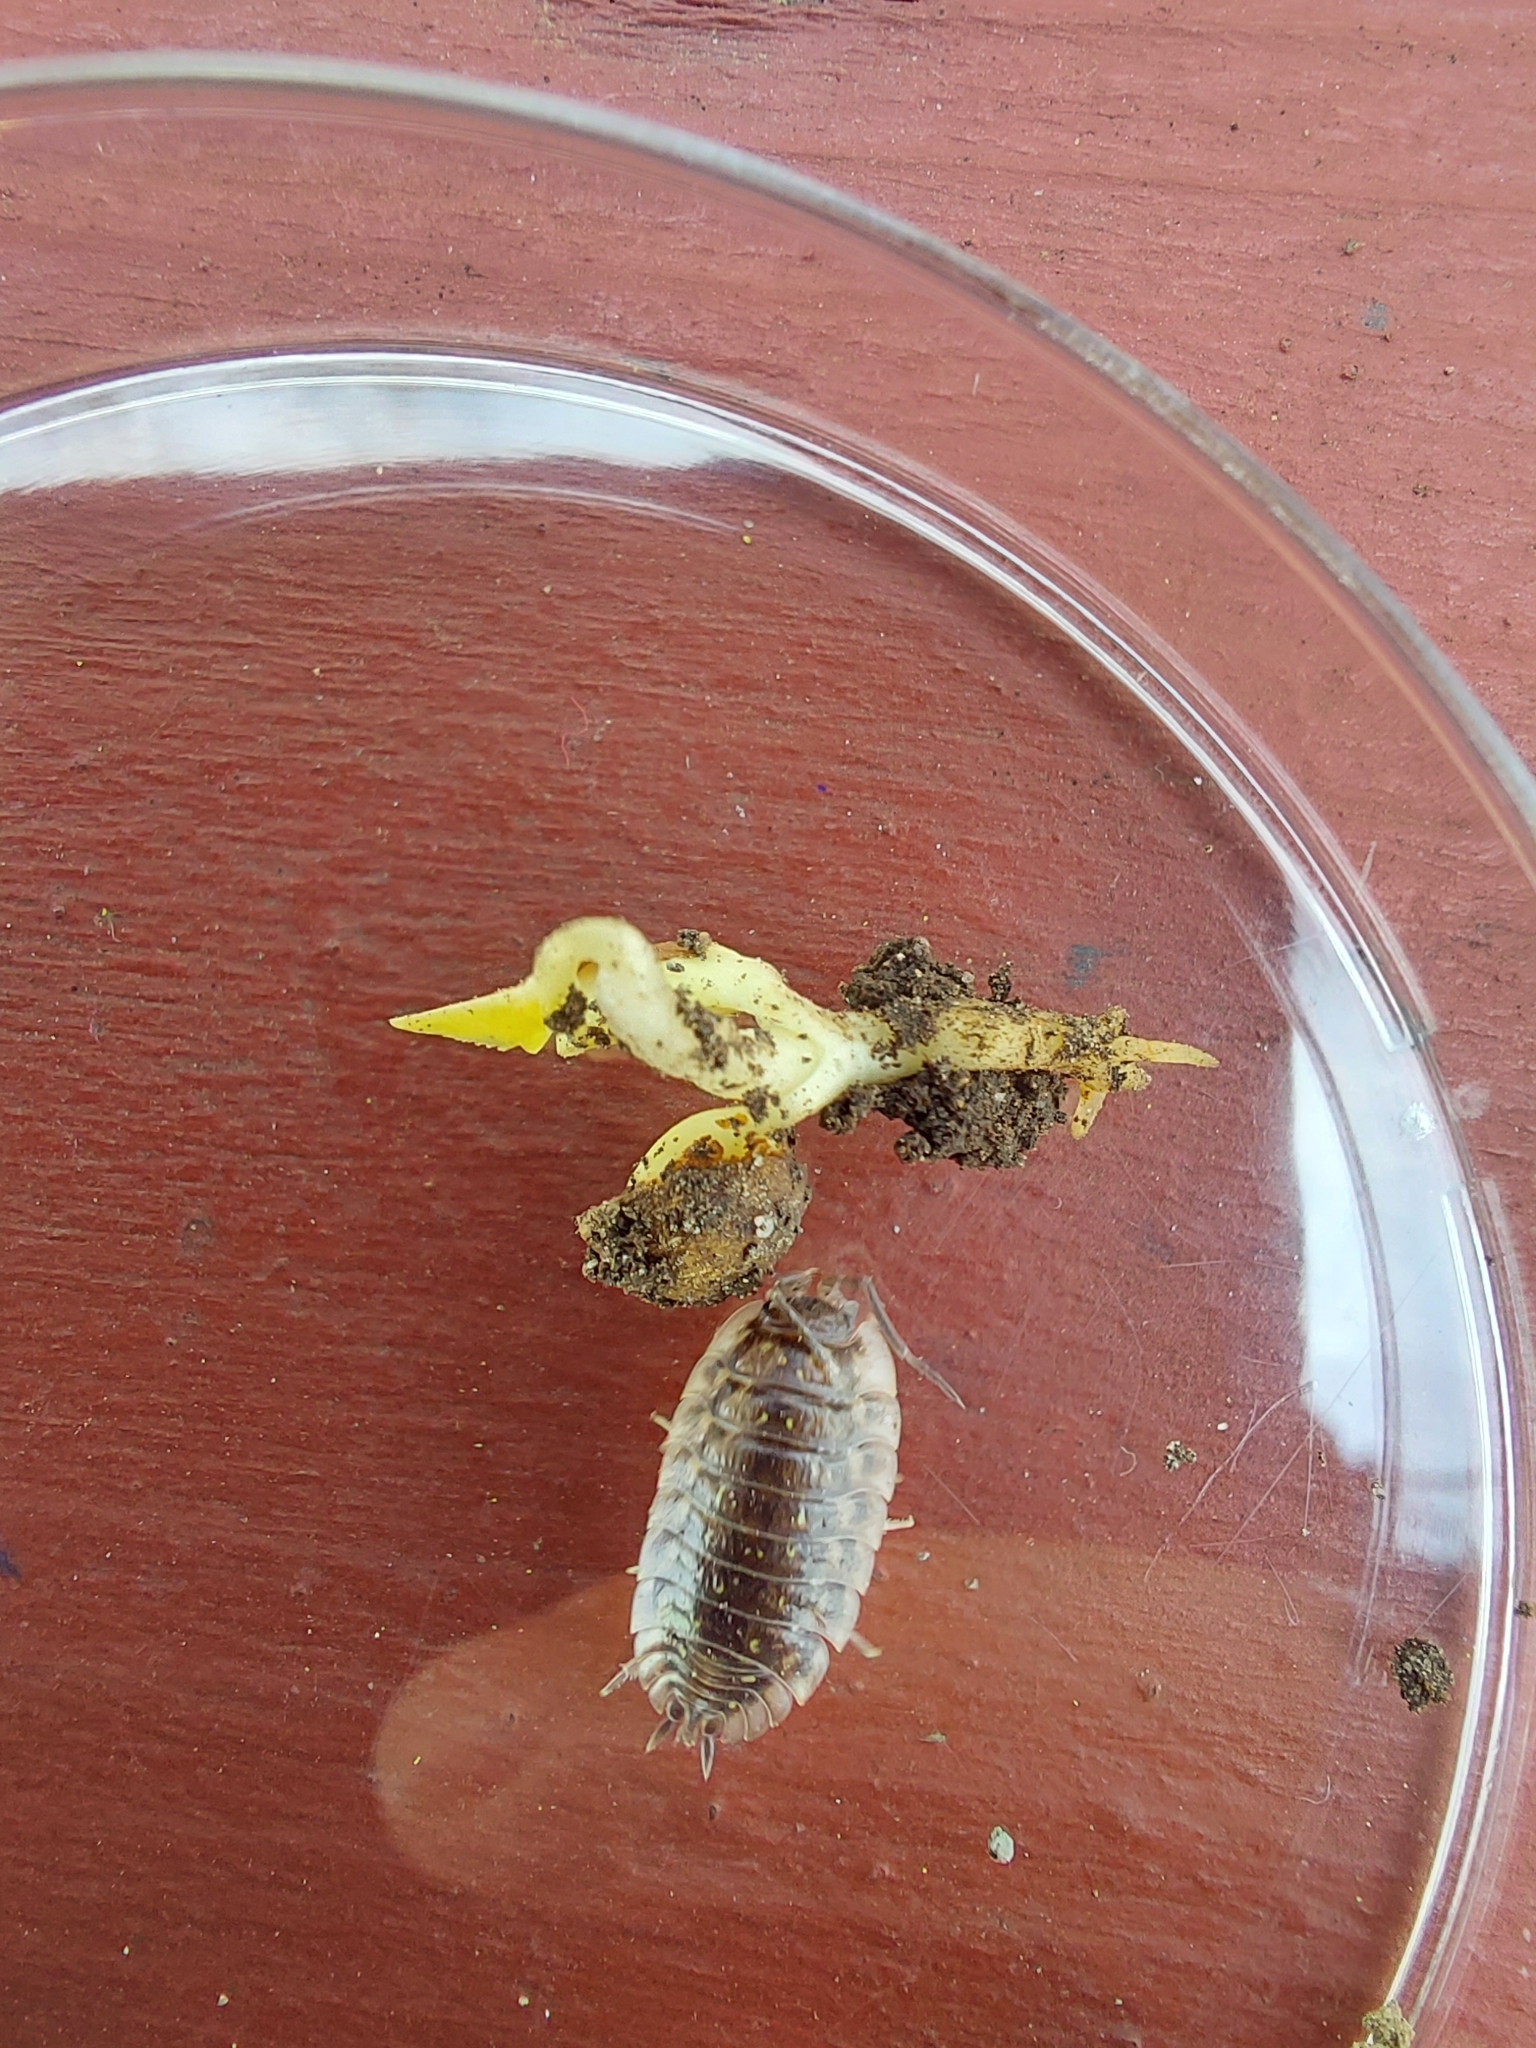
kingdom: Animalia
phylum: Arthropoda
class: Malacostraca
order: Isopoda
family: Oniscidae
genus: Oniscus
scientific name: Oniscus asellus
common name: Common shiny woodlouse
